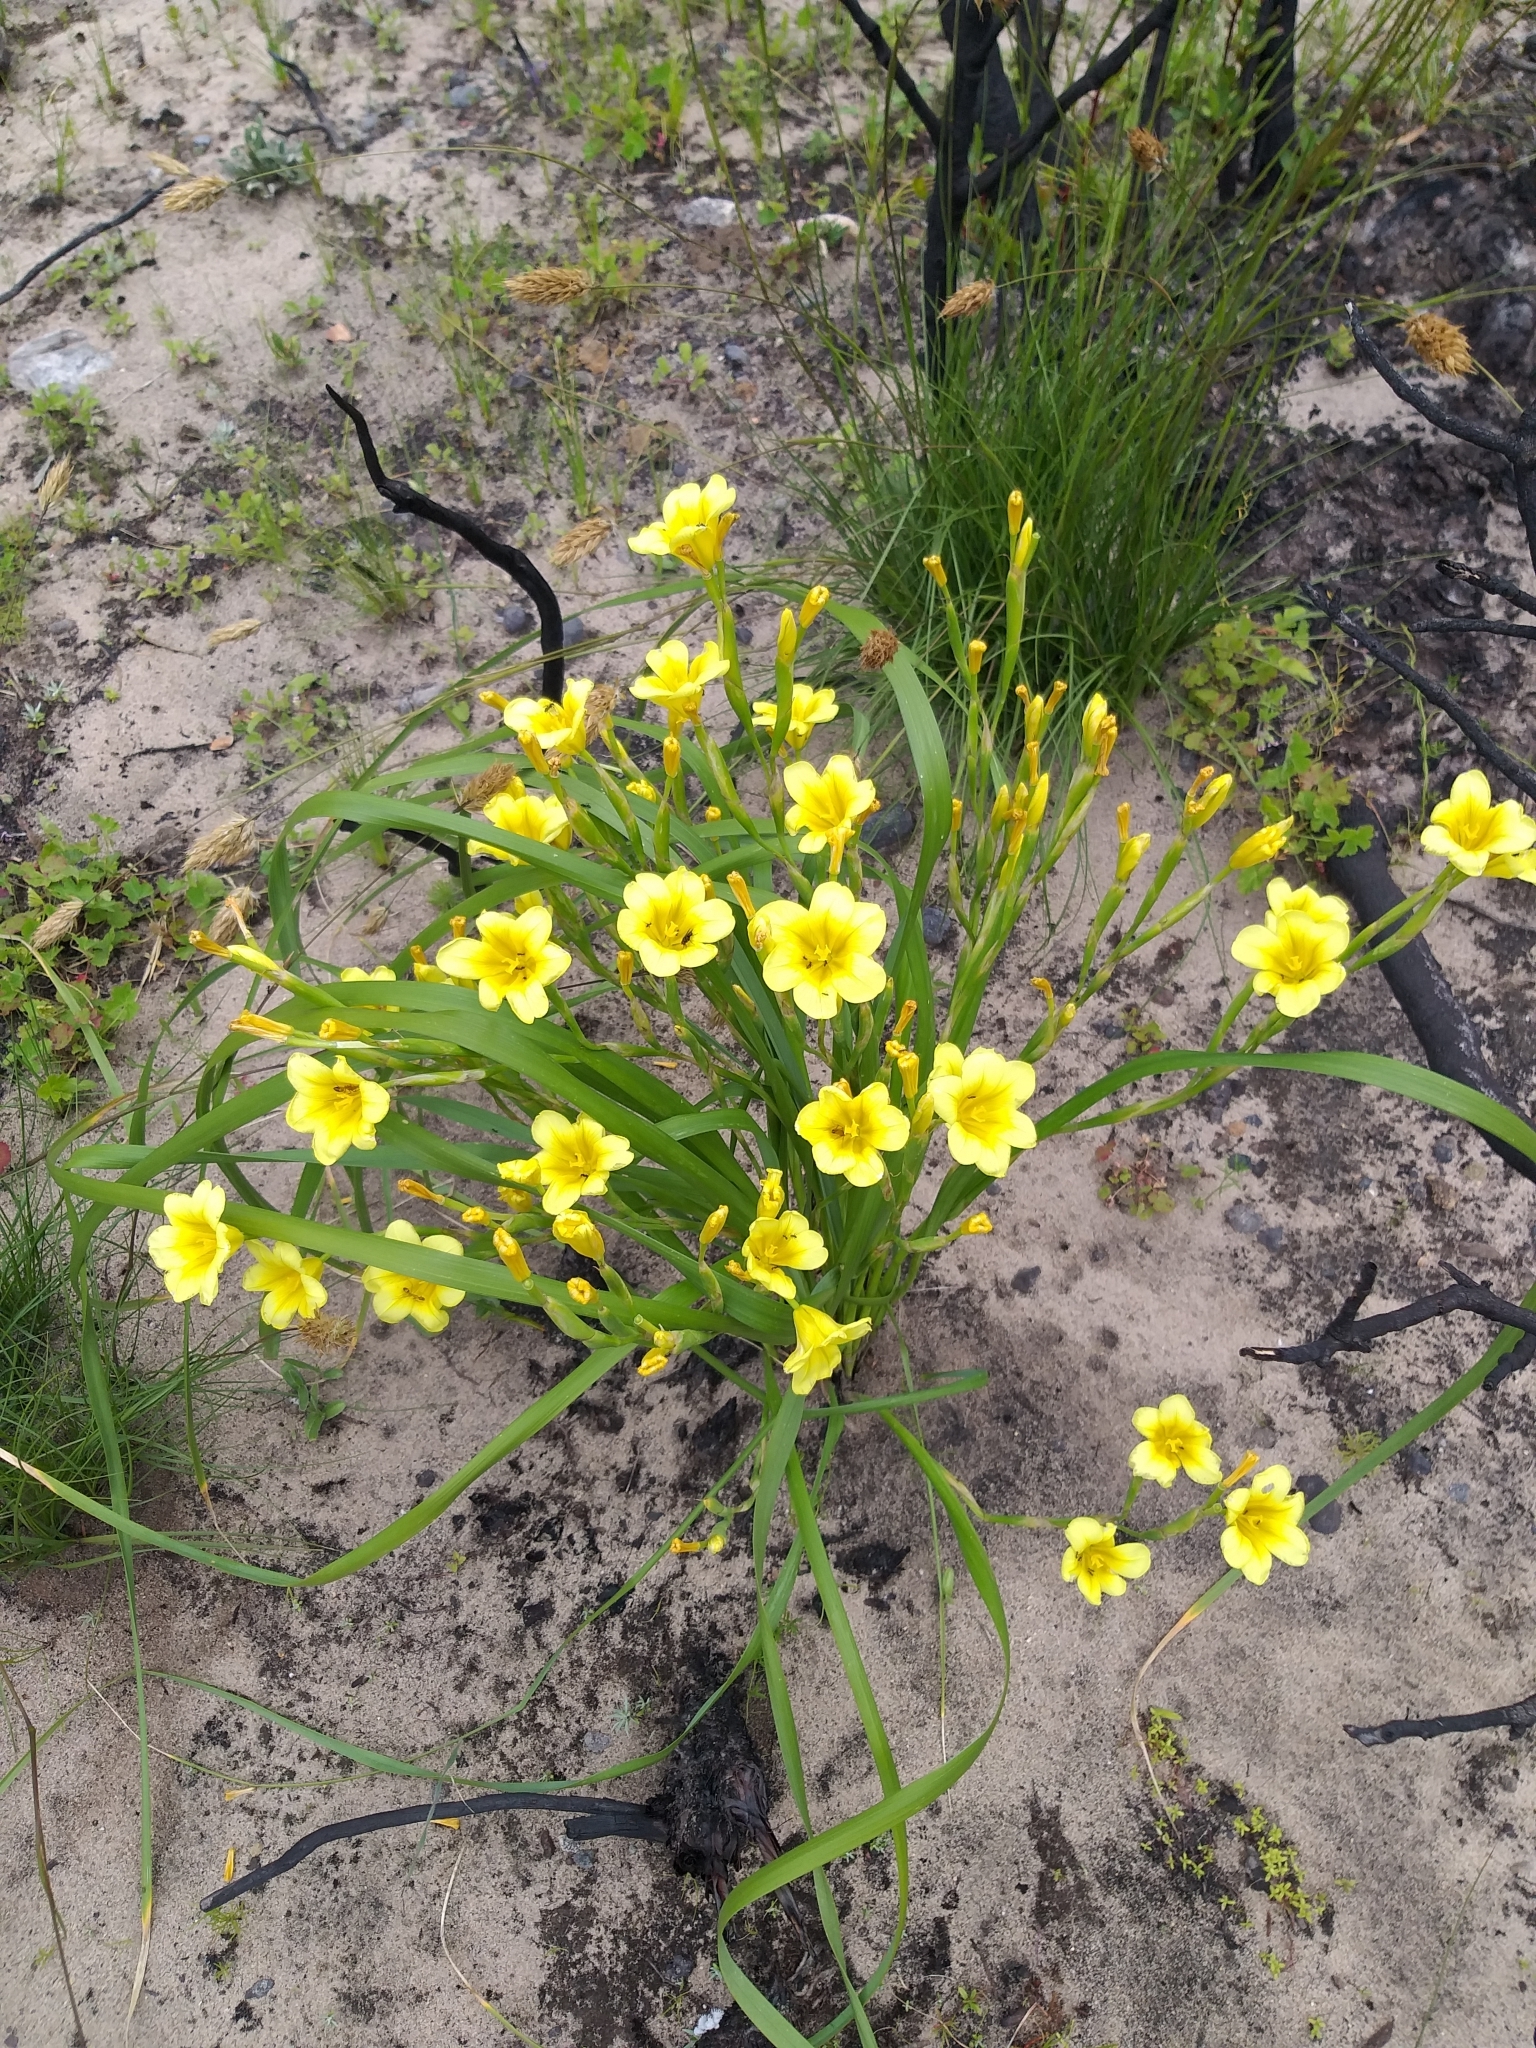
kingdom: Plantae
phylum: Tracheophyta
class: Liliopsida
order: Asparagales
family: Iridaceae
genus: Moraea
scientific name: Moraea ochroleuca
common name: Red tulp
